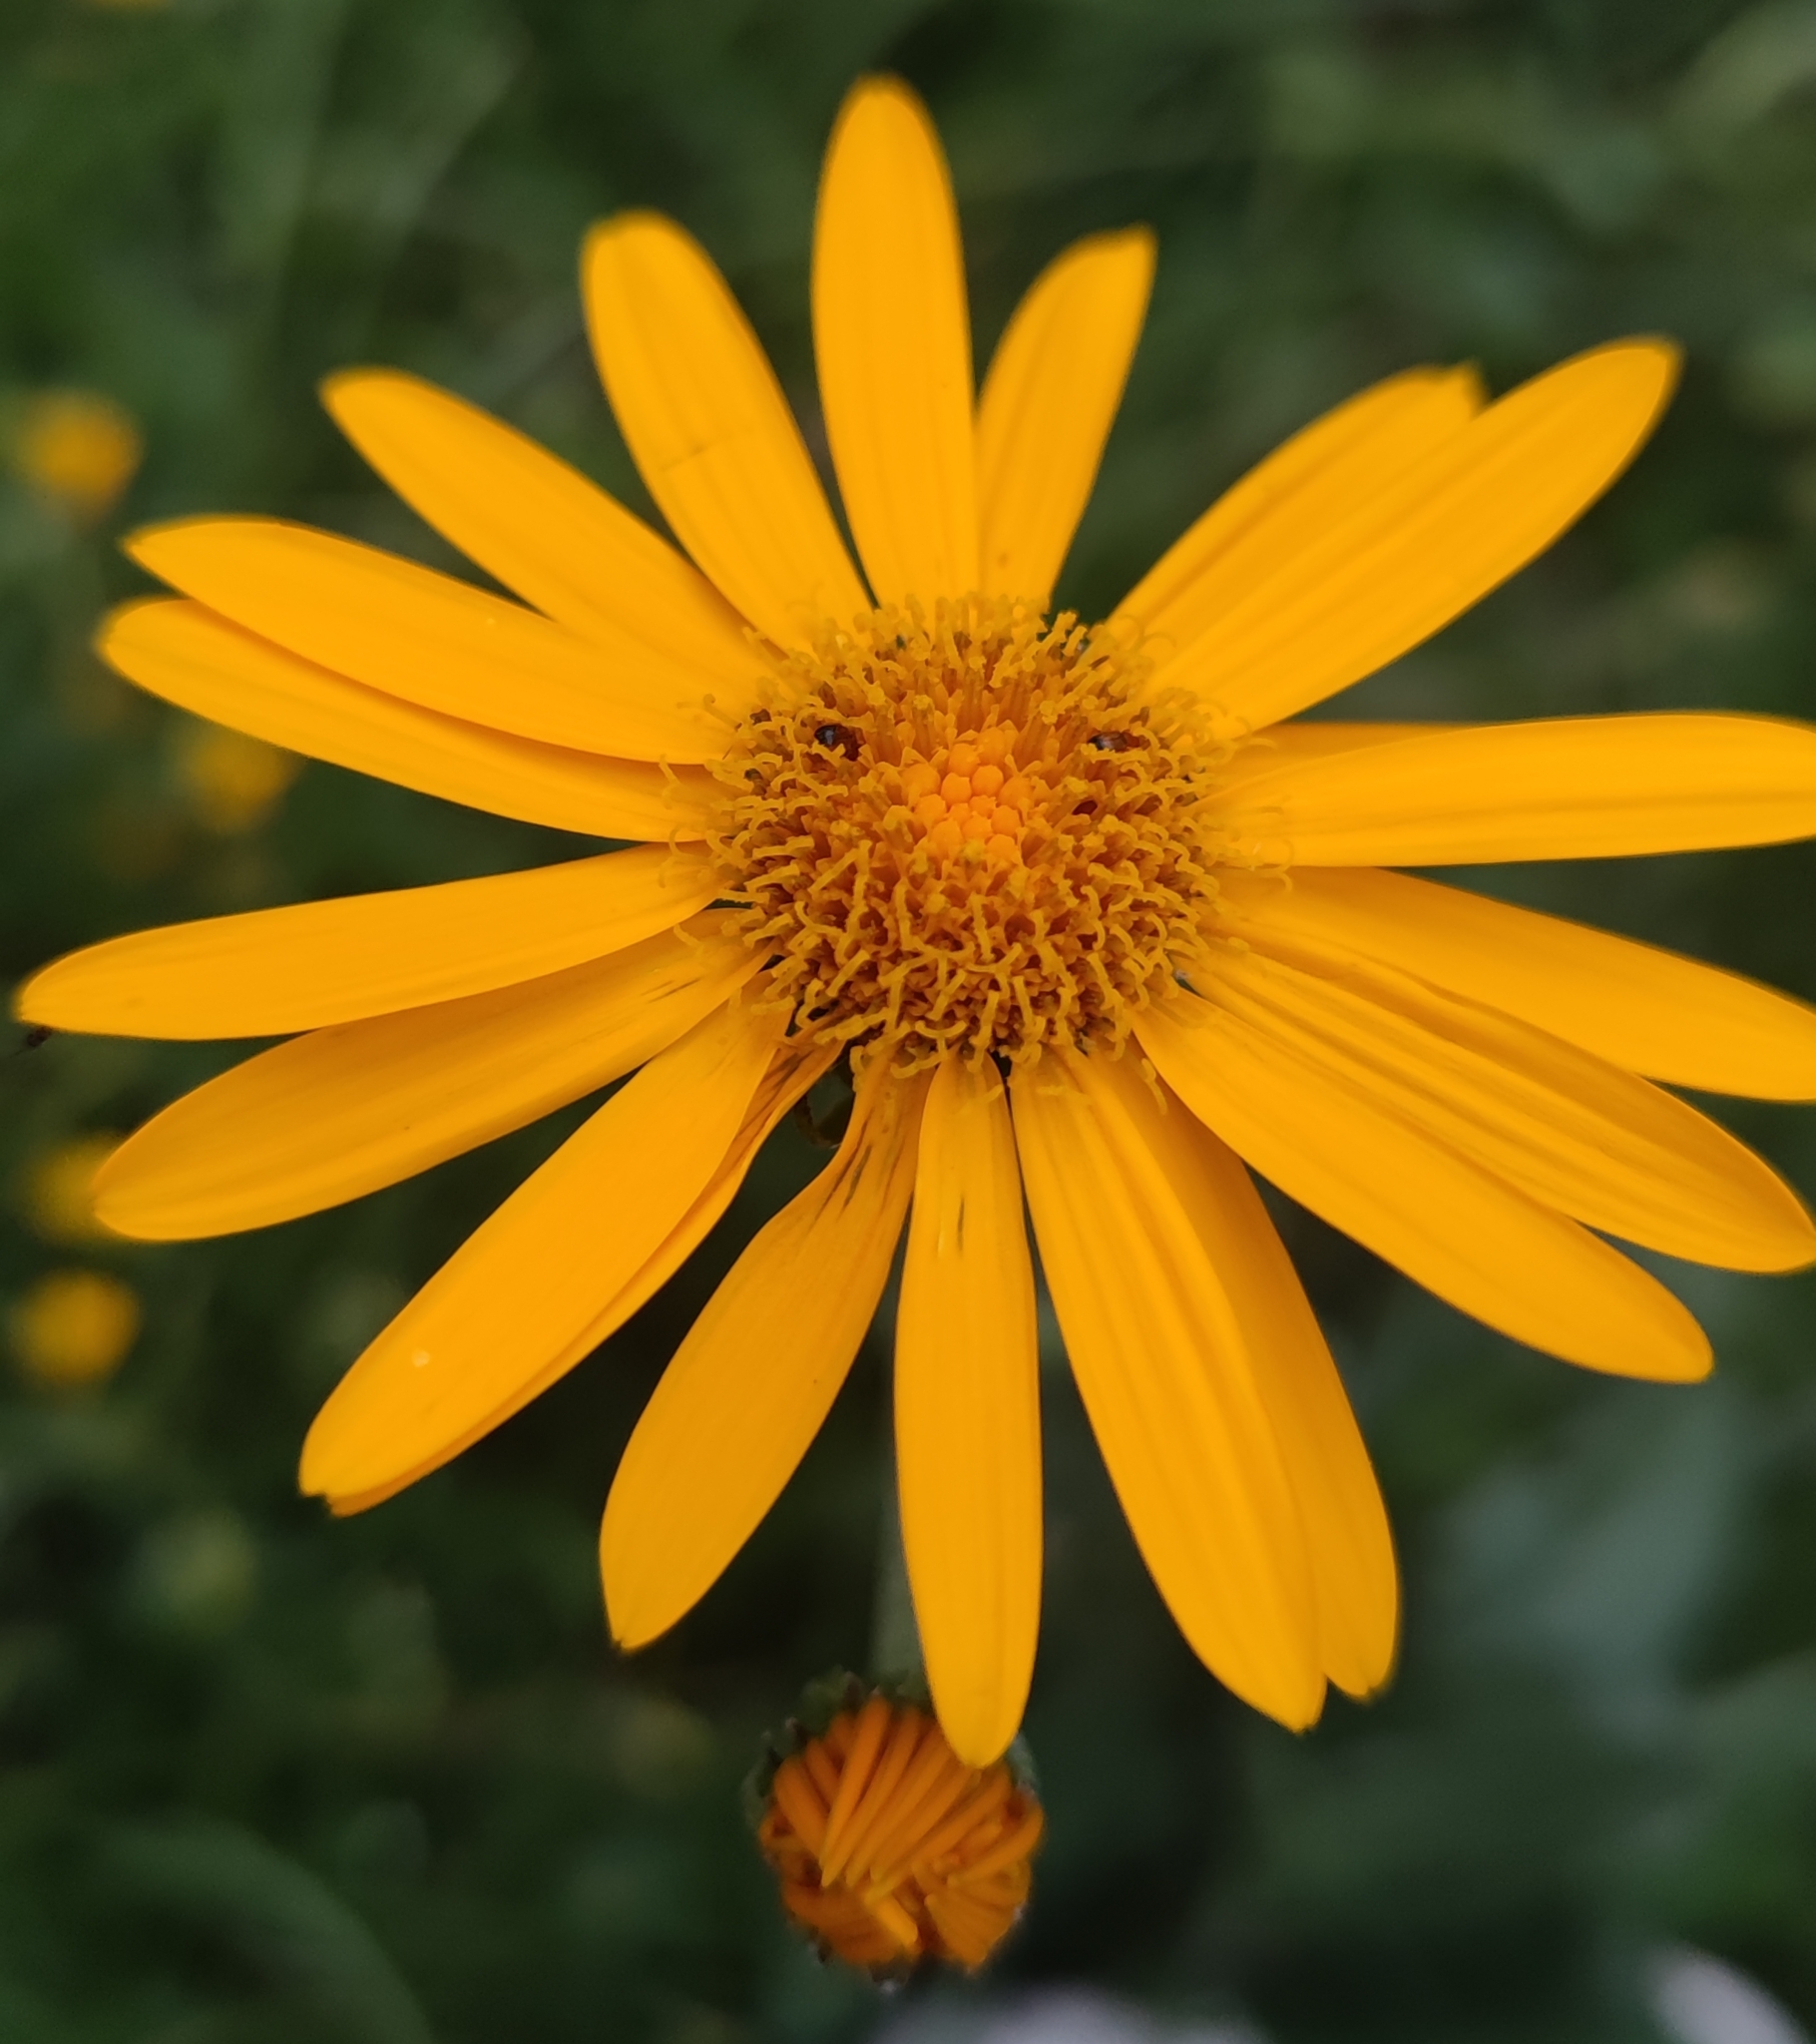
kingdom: Plantae
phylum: Tracheophyta
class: Magnoliopsida
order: Asterales
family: Asteraceae
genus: Senecio
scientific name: Senecio doronicum
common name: Chamois ragwort
